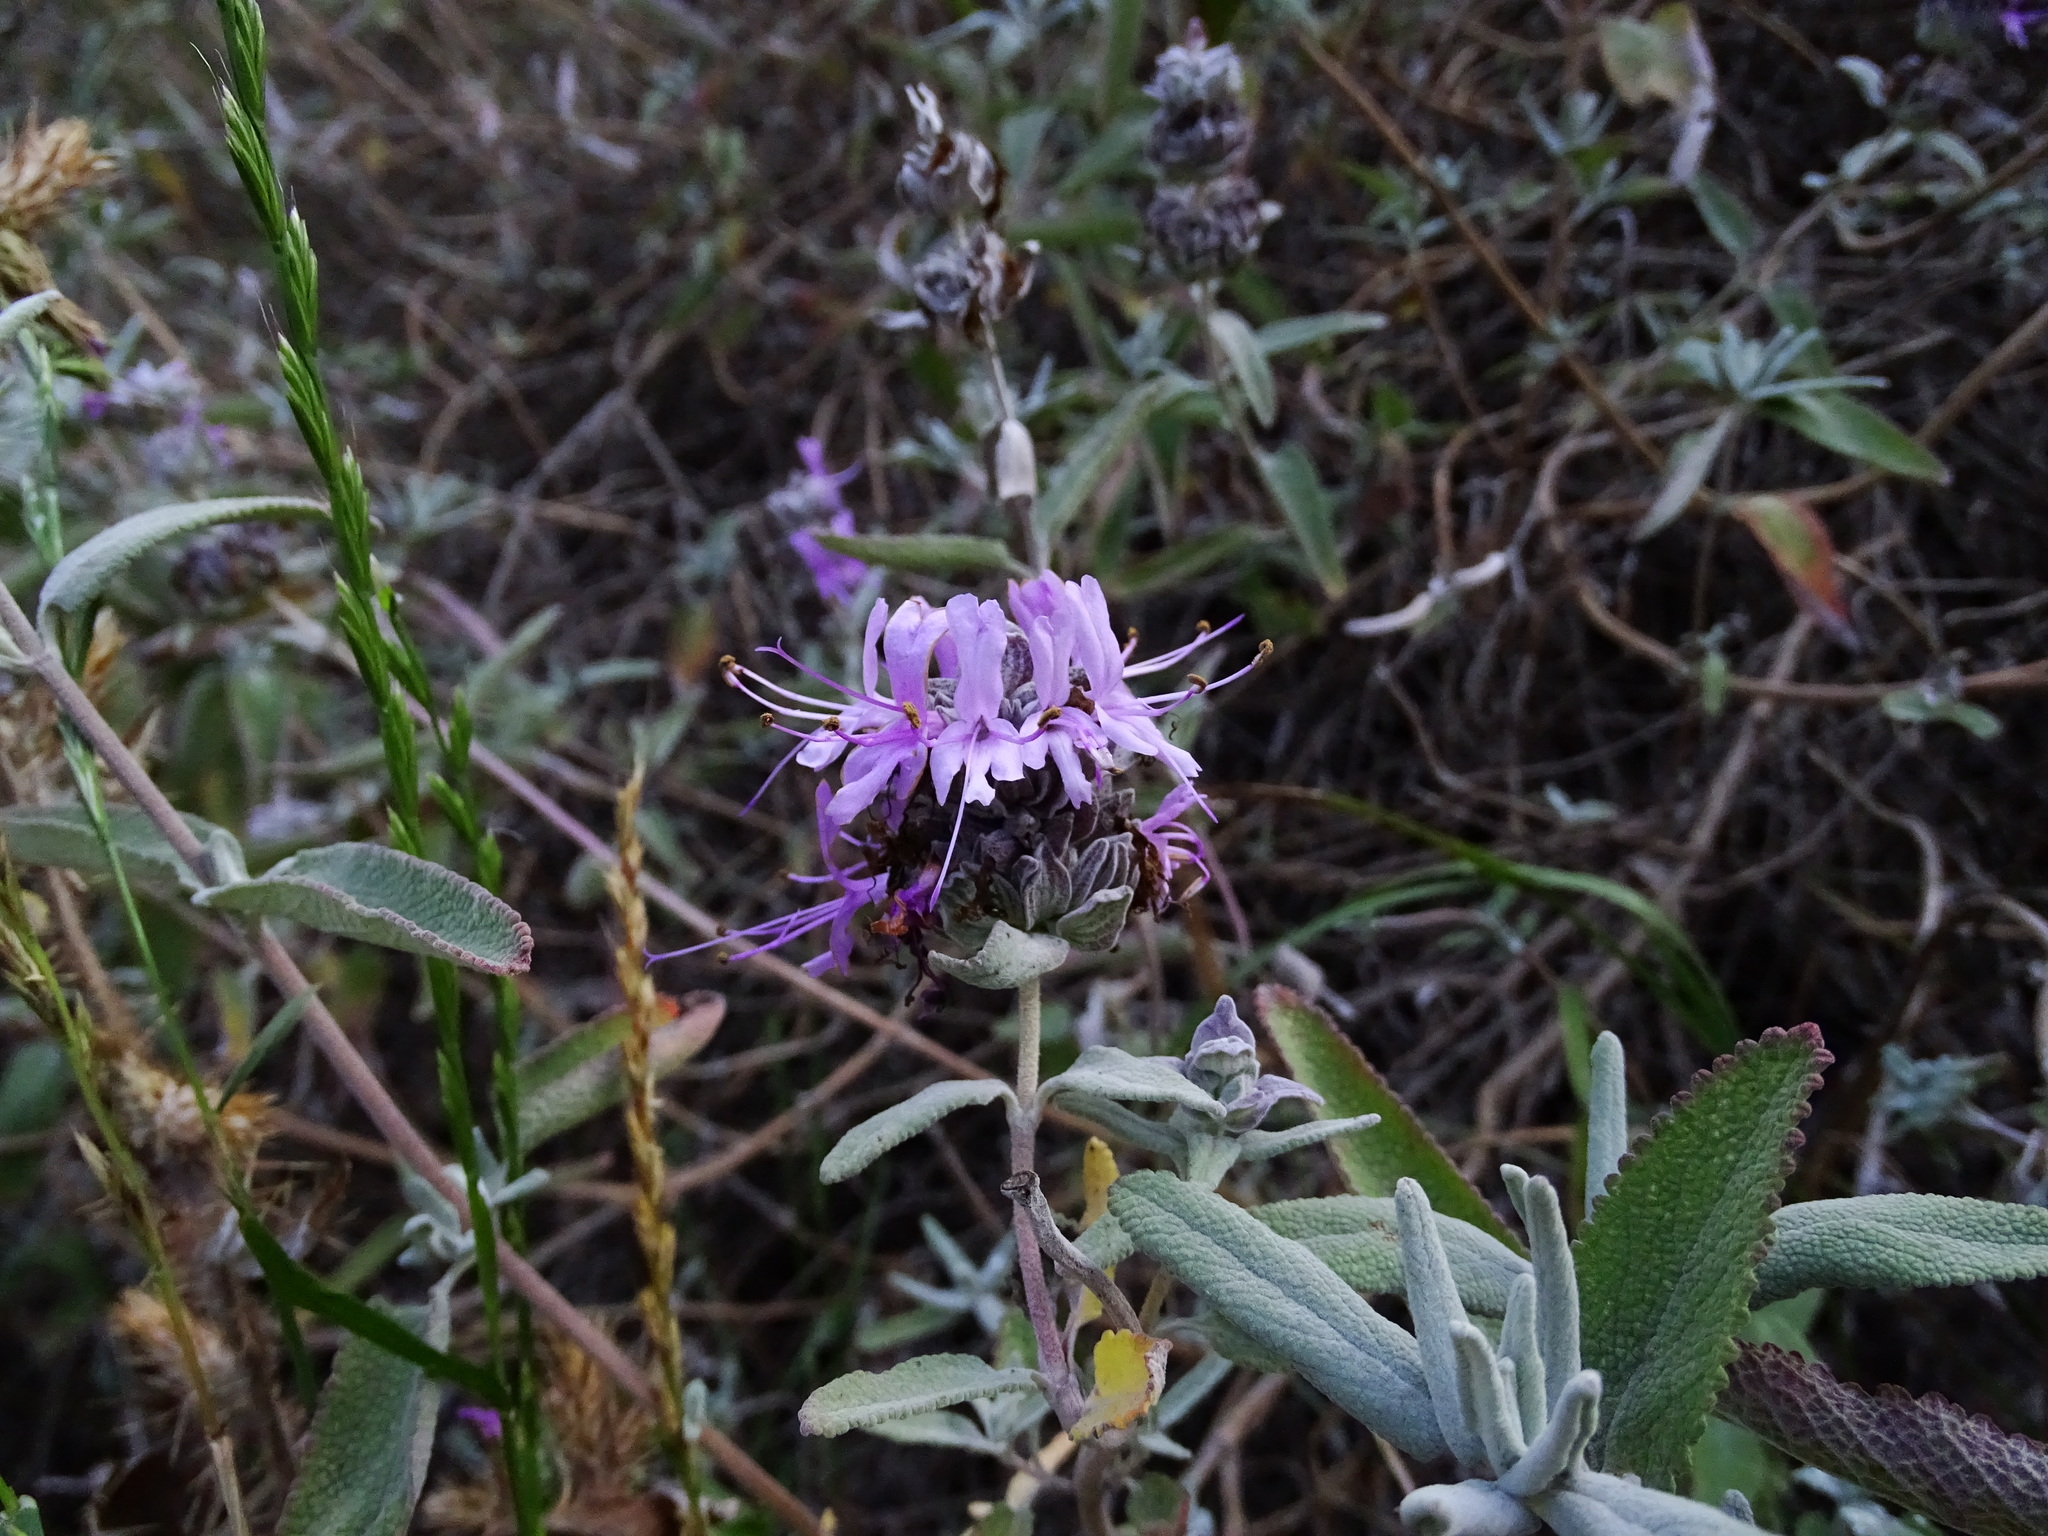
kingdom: Plantae
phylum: Tracheophyta
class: Magnoliopsida
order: Lamiales
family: Lamiaceae
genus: Salvia
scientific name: Salvia leucophylla
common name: Purple sage
